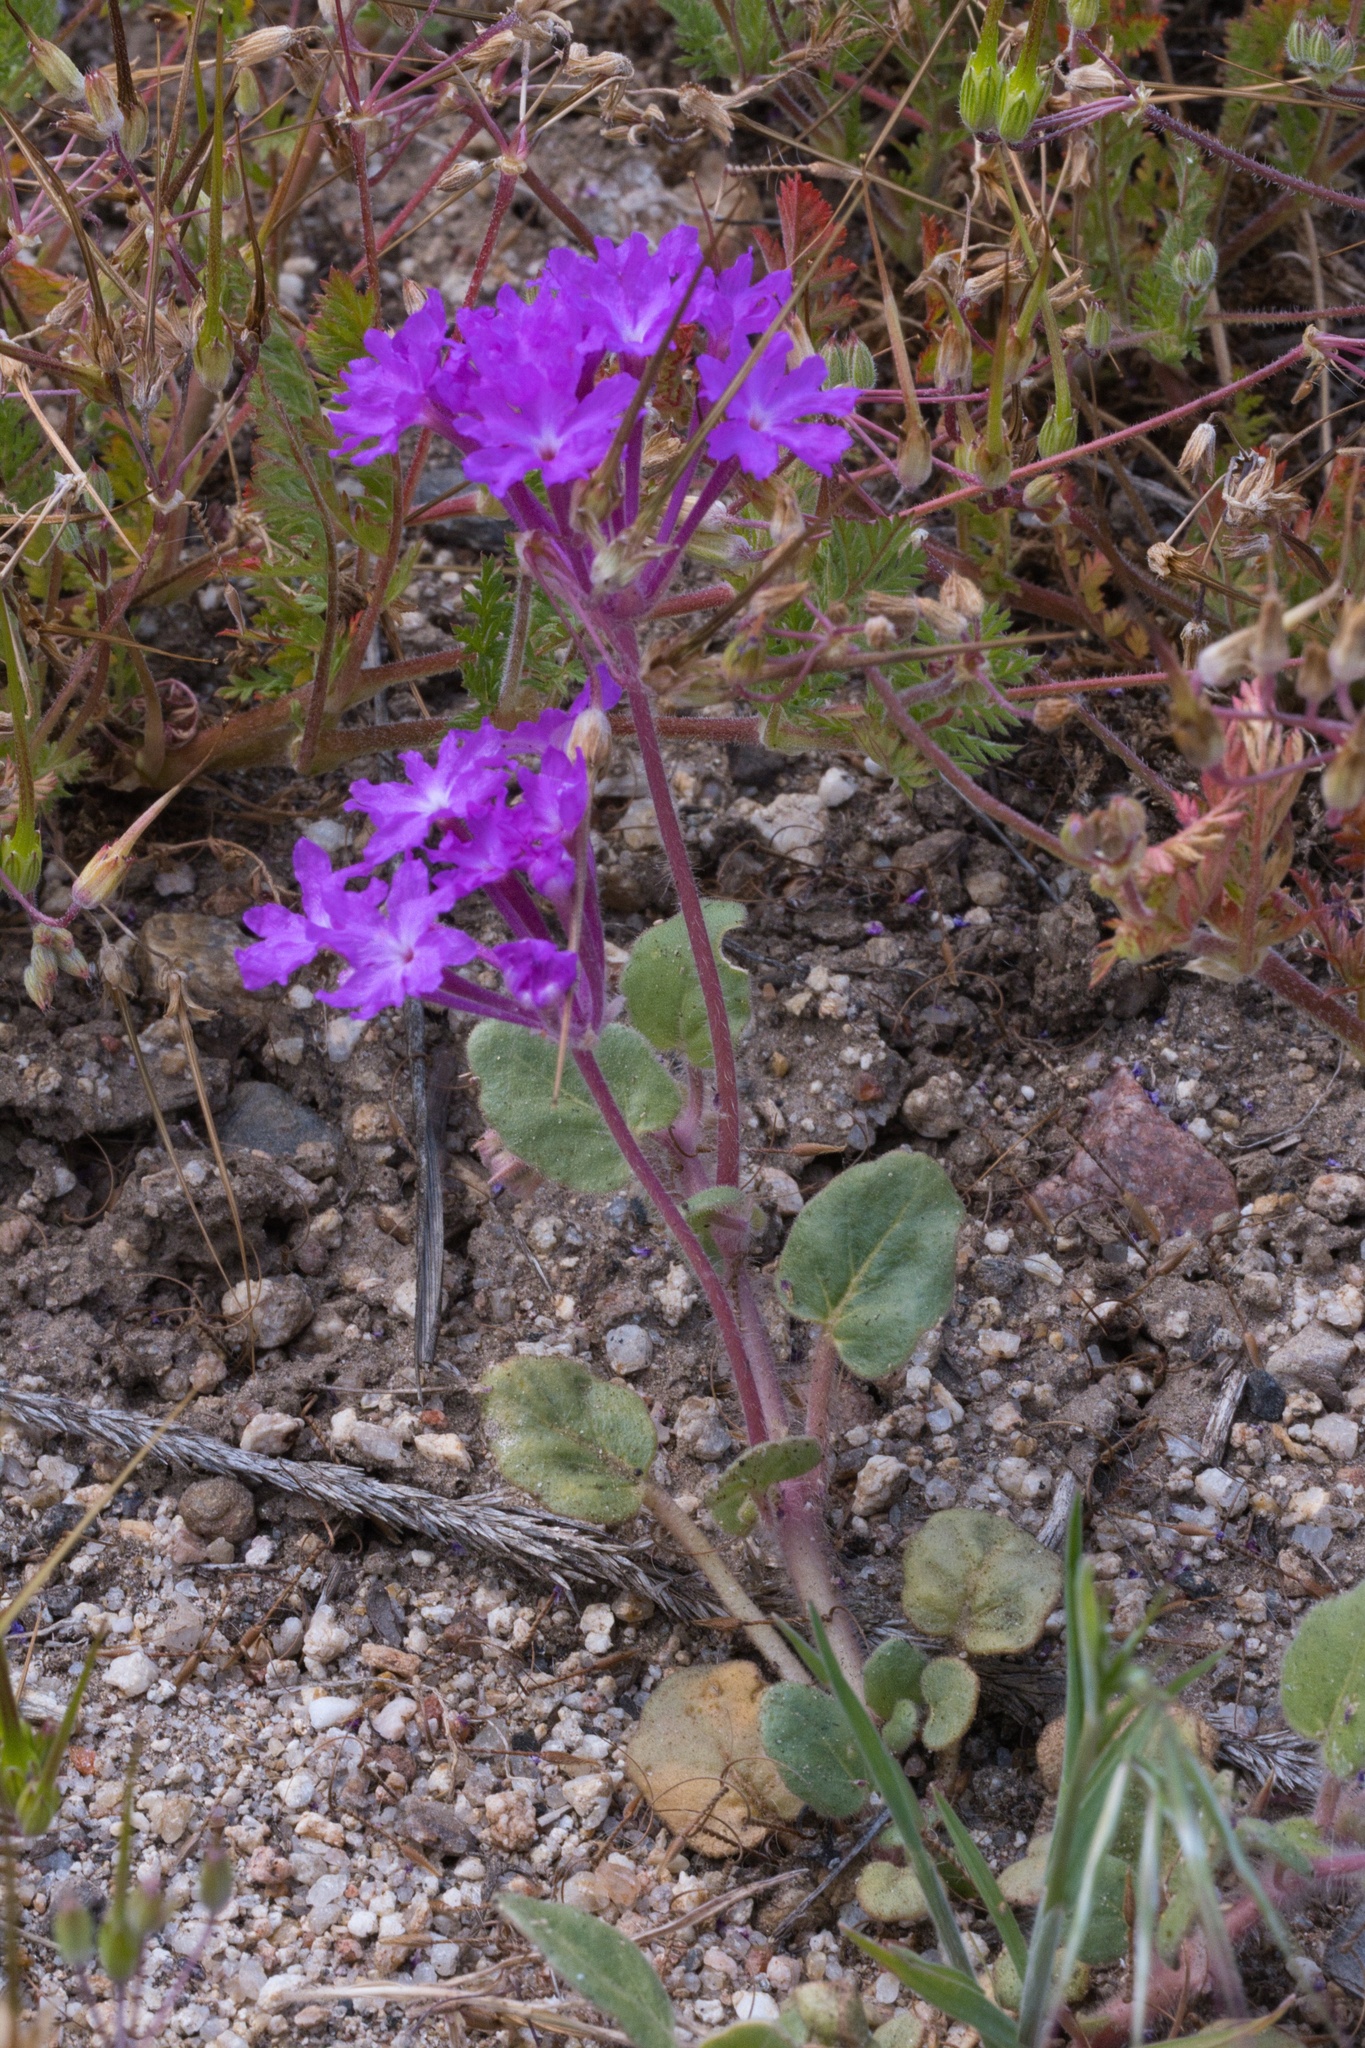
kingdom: Plantae
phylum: Tracheophyta
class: Magnoliopsida
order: Caryophyllales
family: Nyctaginaceae
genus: Abronia
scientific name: Abronia villosa
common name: Desert sand-verbena
